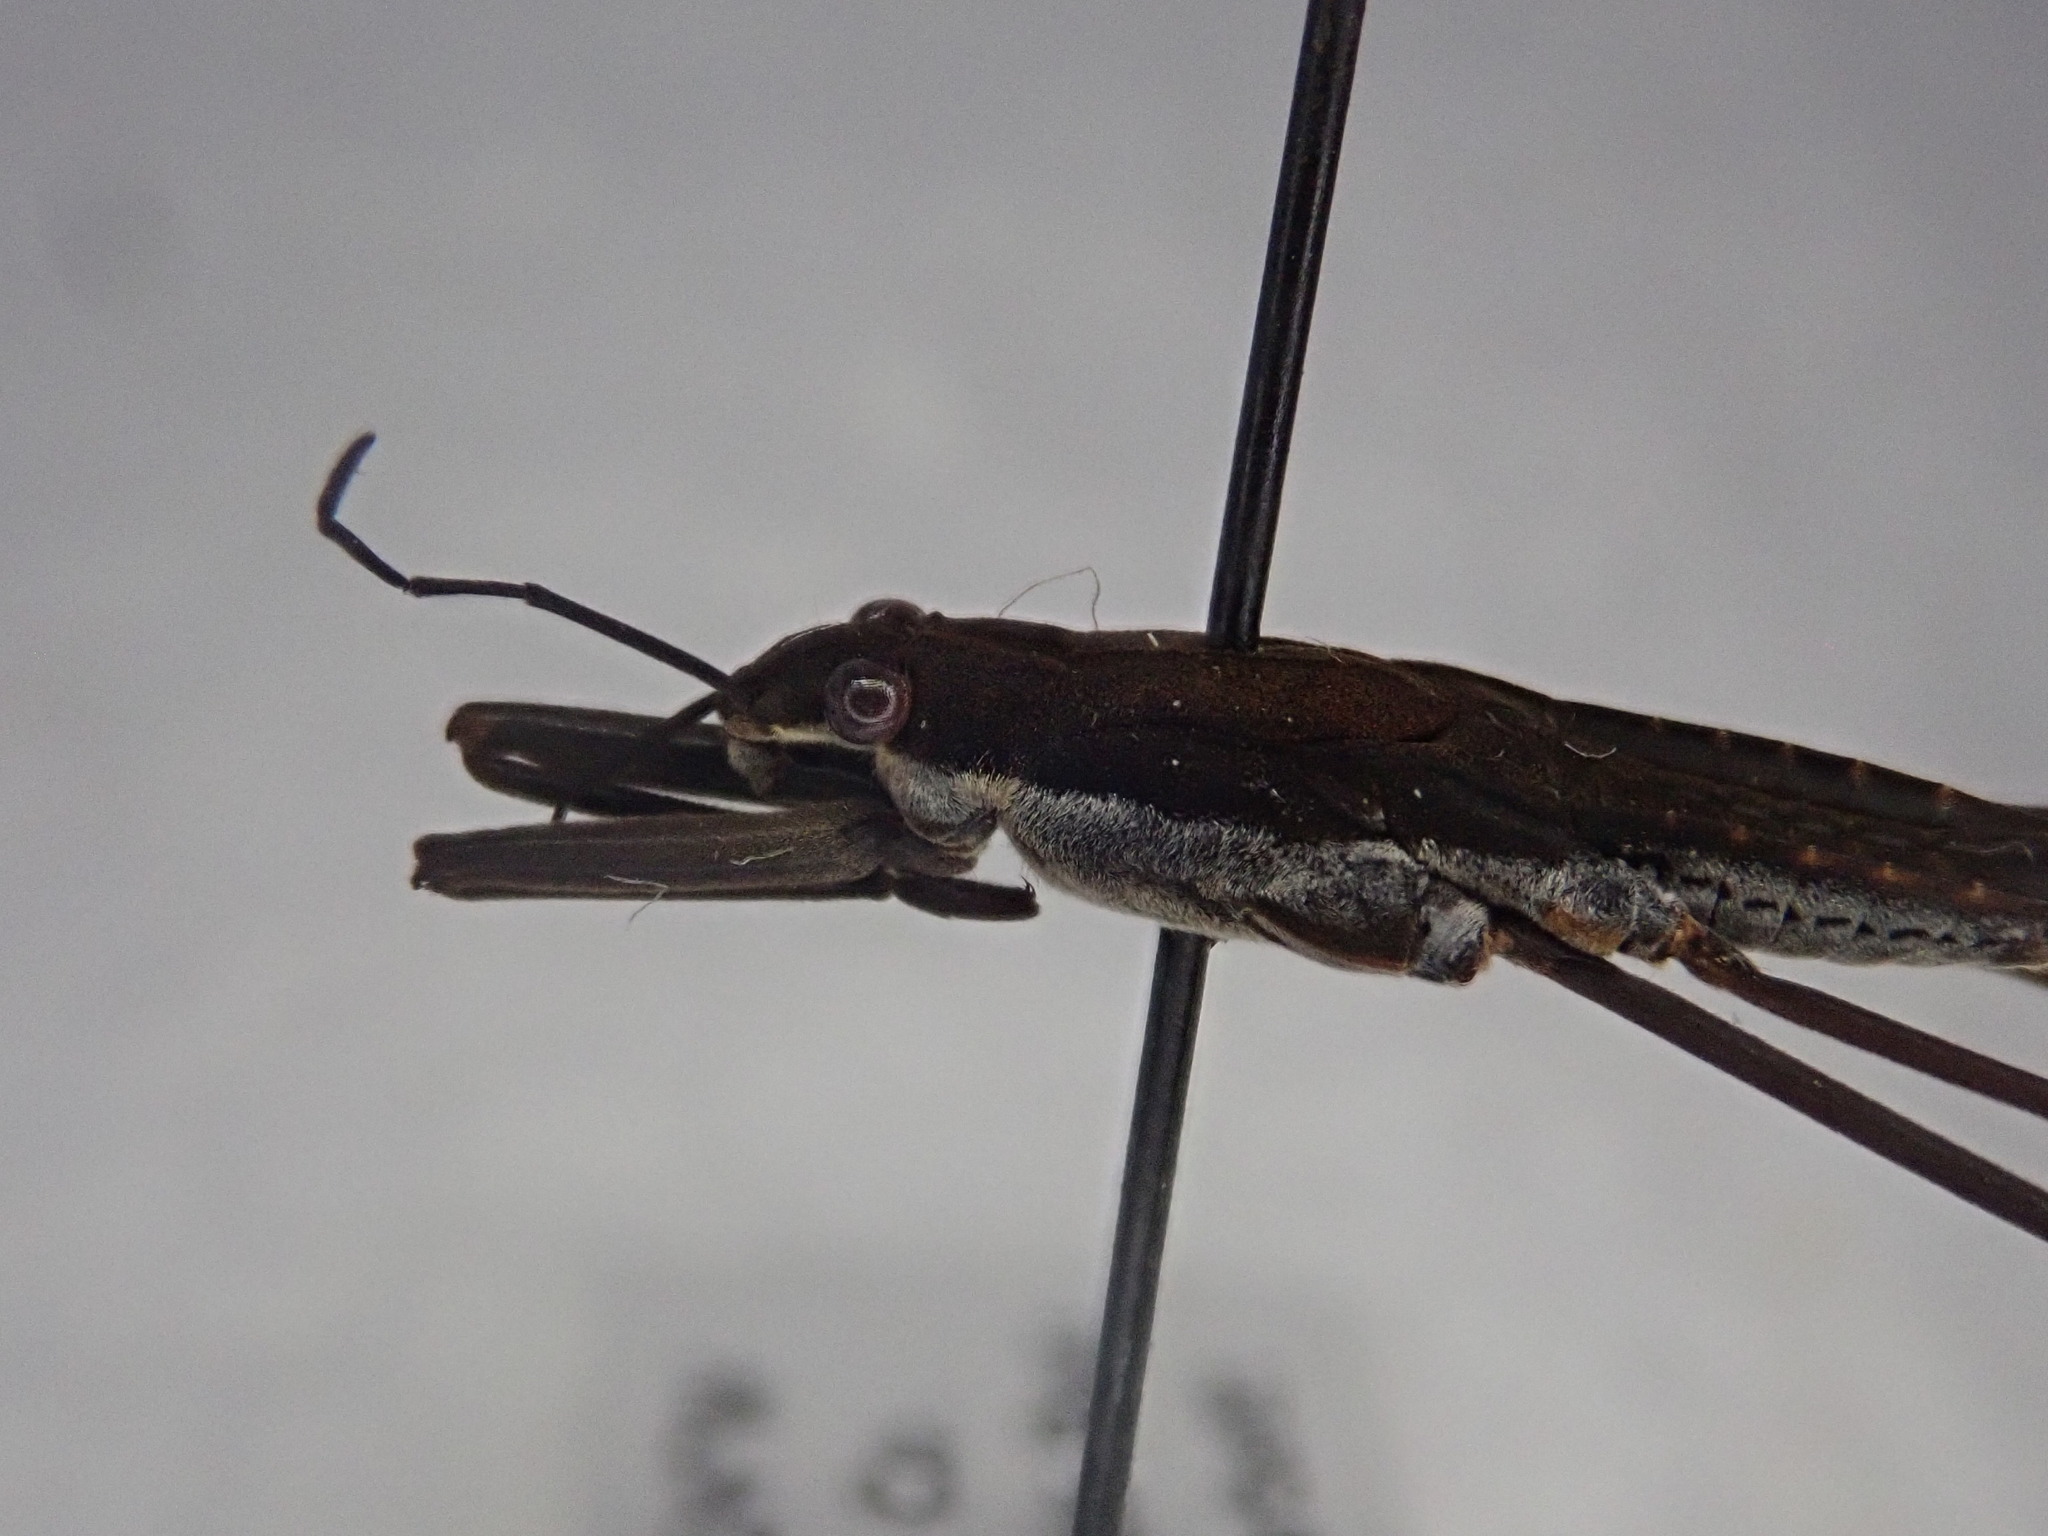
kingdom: Animalia
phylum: Arthropoda
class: Insecta
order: Hemiptera
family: Gerridae
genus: Aquarius
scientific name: Aquarius remigis
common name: Common water strider
